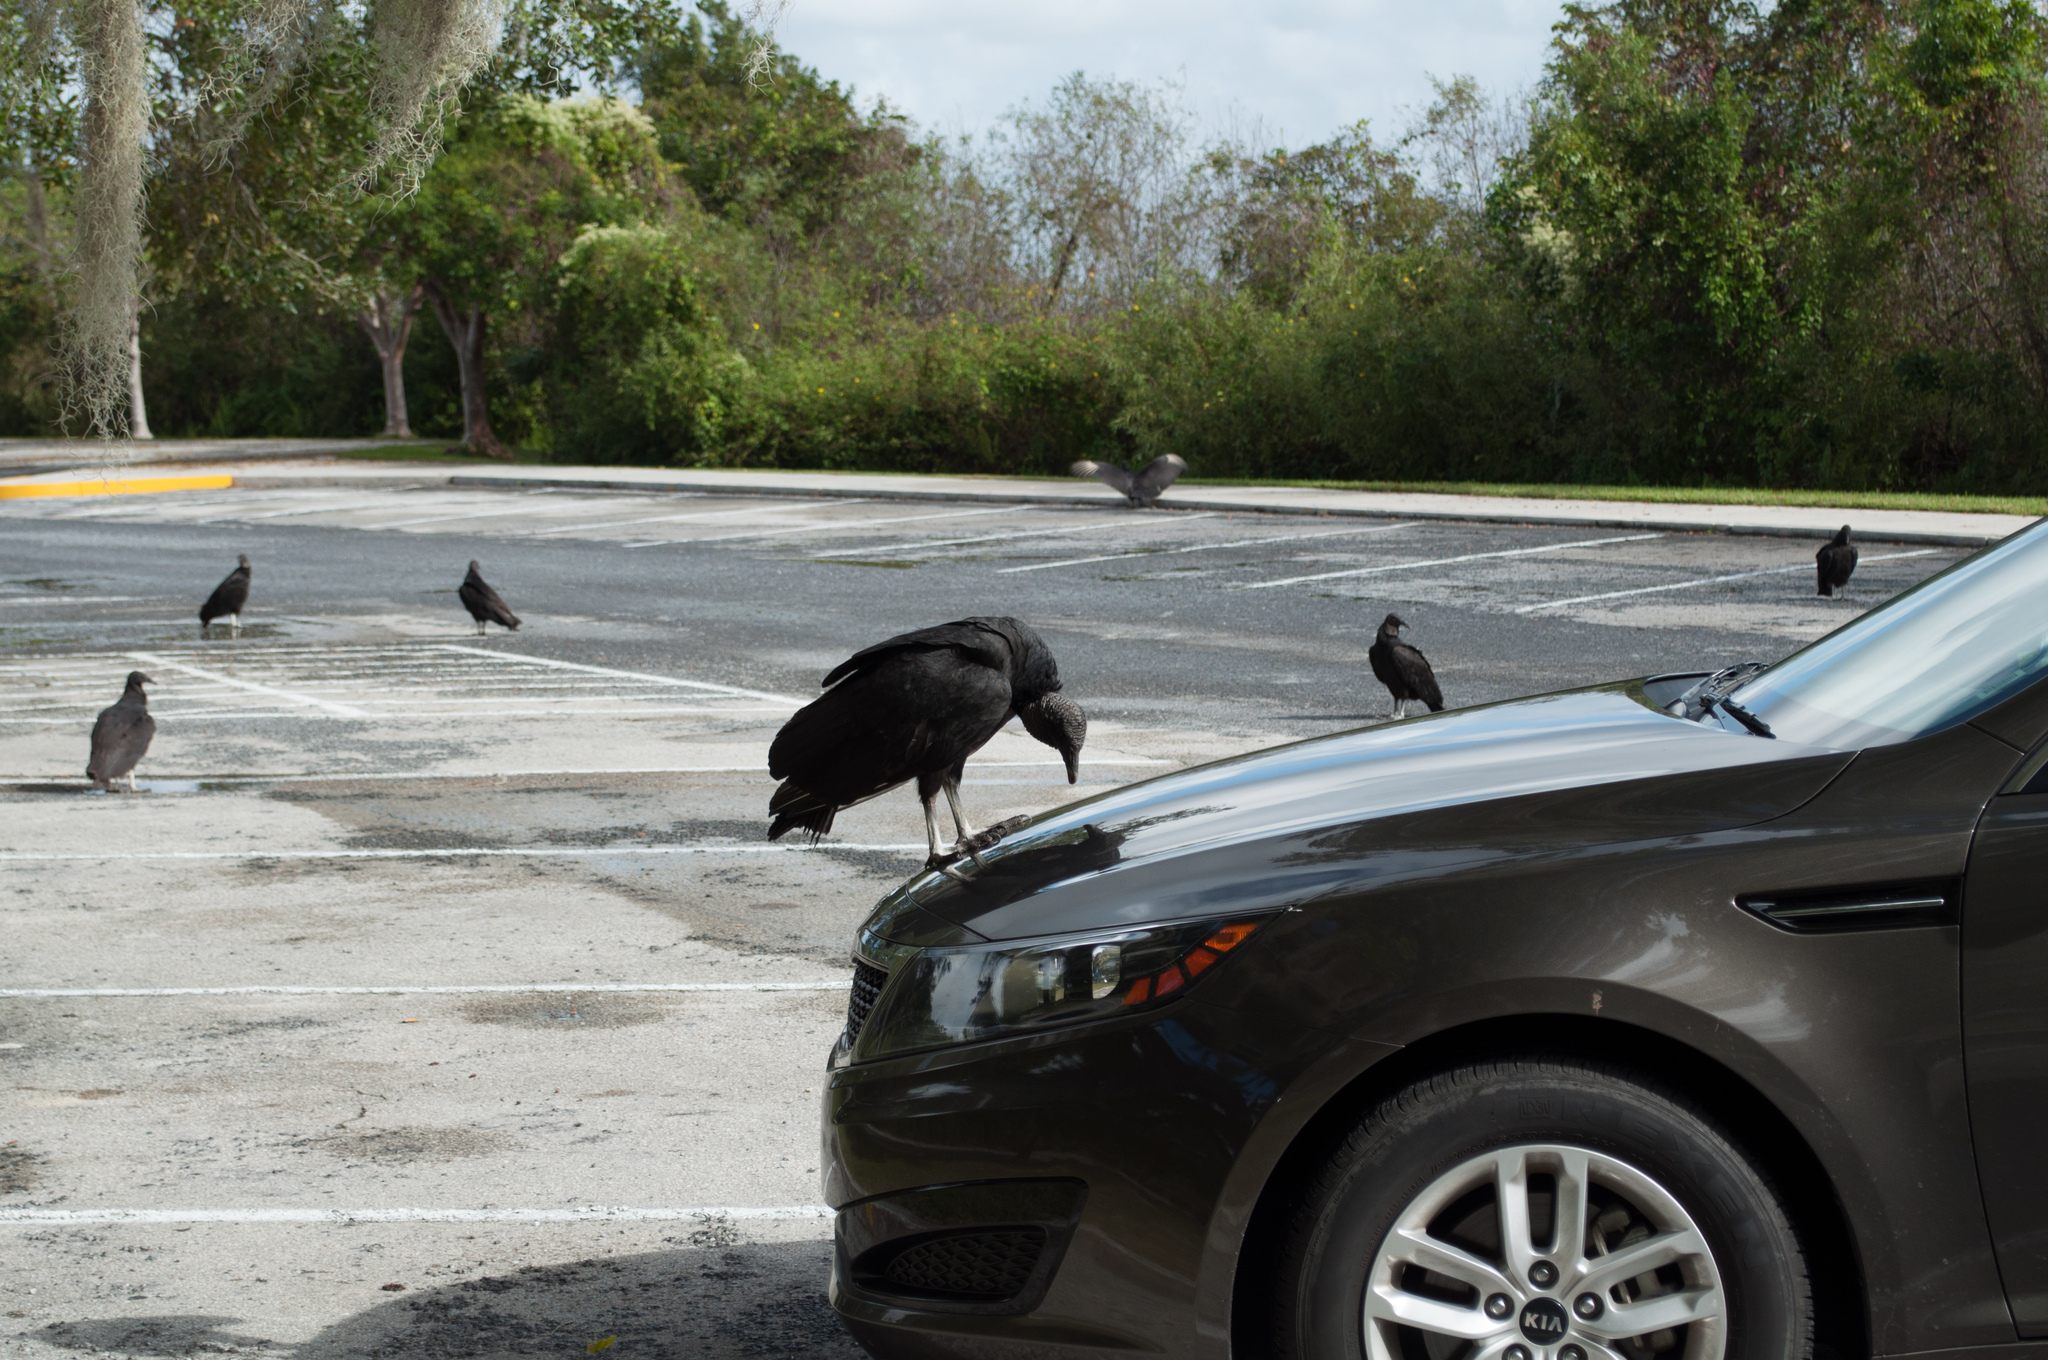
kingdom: Animalia
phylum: Chordata
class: Aves
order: Accipitriformes
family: Cathartidae
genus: Coragyps
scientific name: Coragyps atratus
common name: Black vulture
